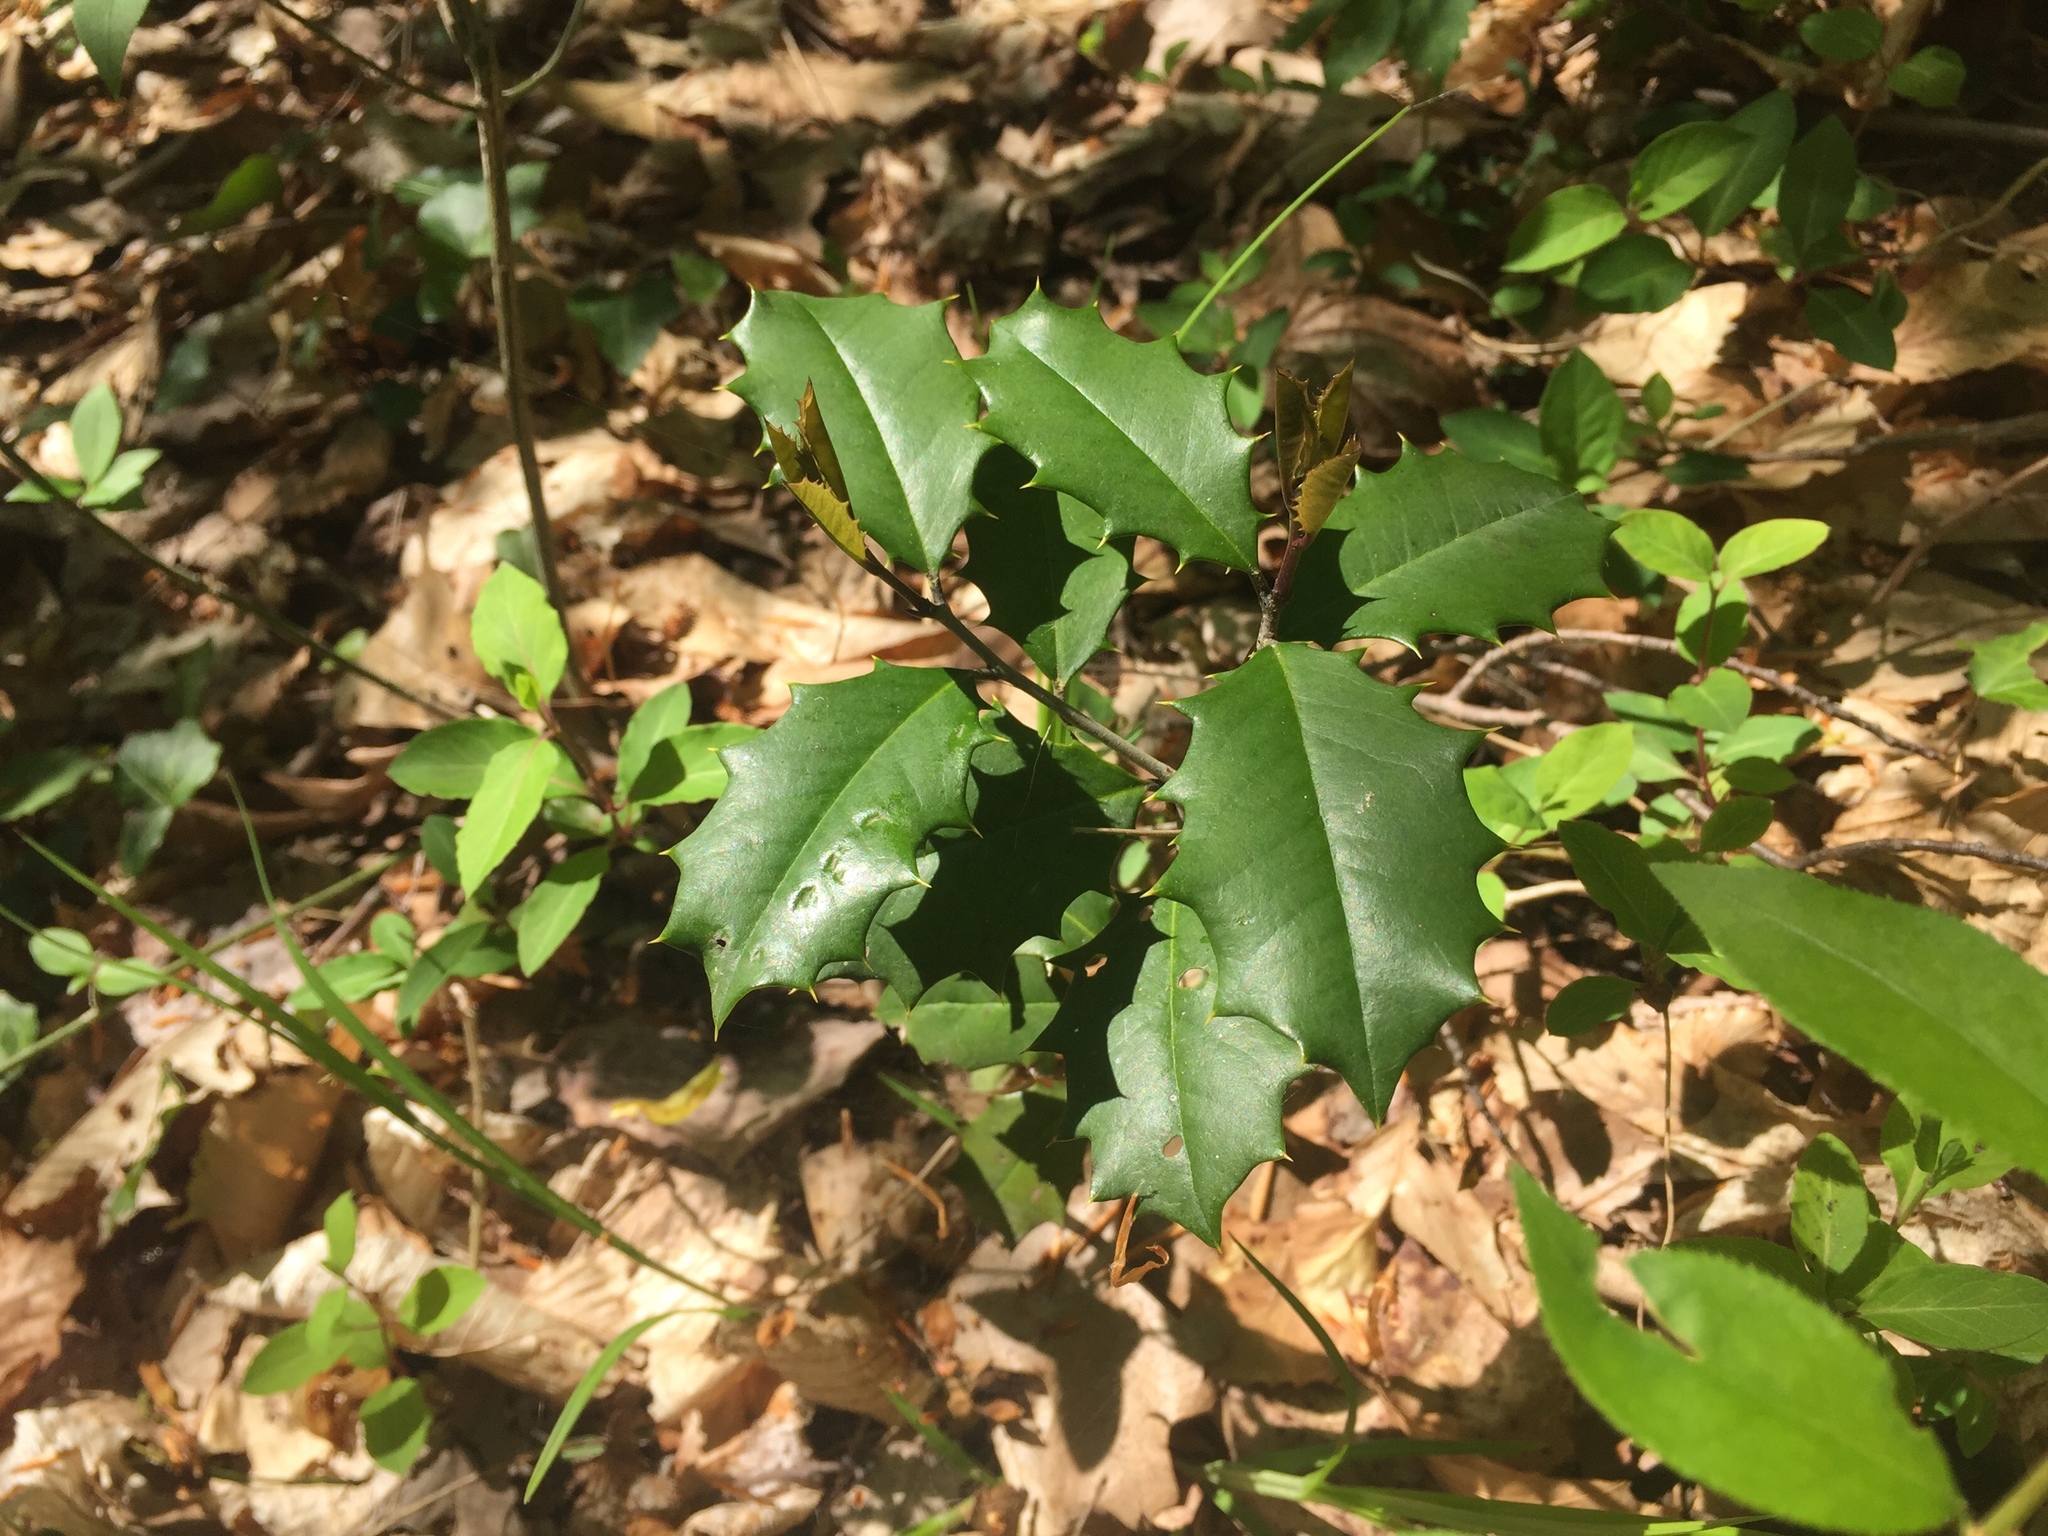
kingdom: Plantae
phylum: Tracheophyta
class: Magnoliopsida
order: Aquifoliales
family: Aquifoliaceae
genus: Ilex
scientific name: Ilex opaca
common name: American holly
